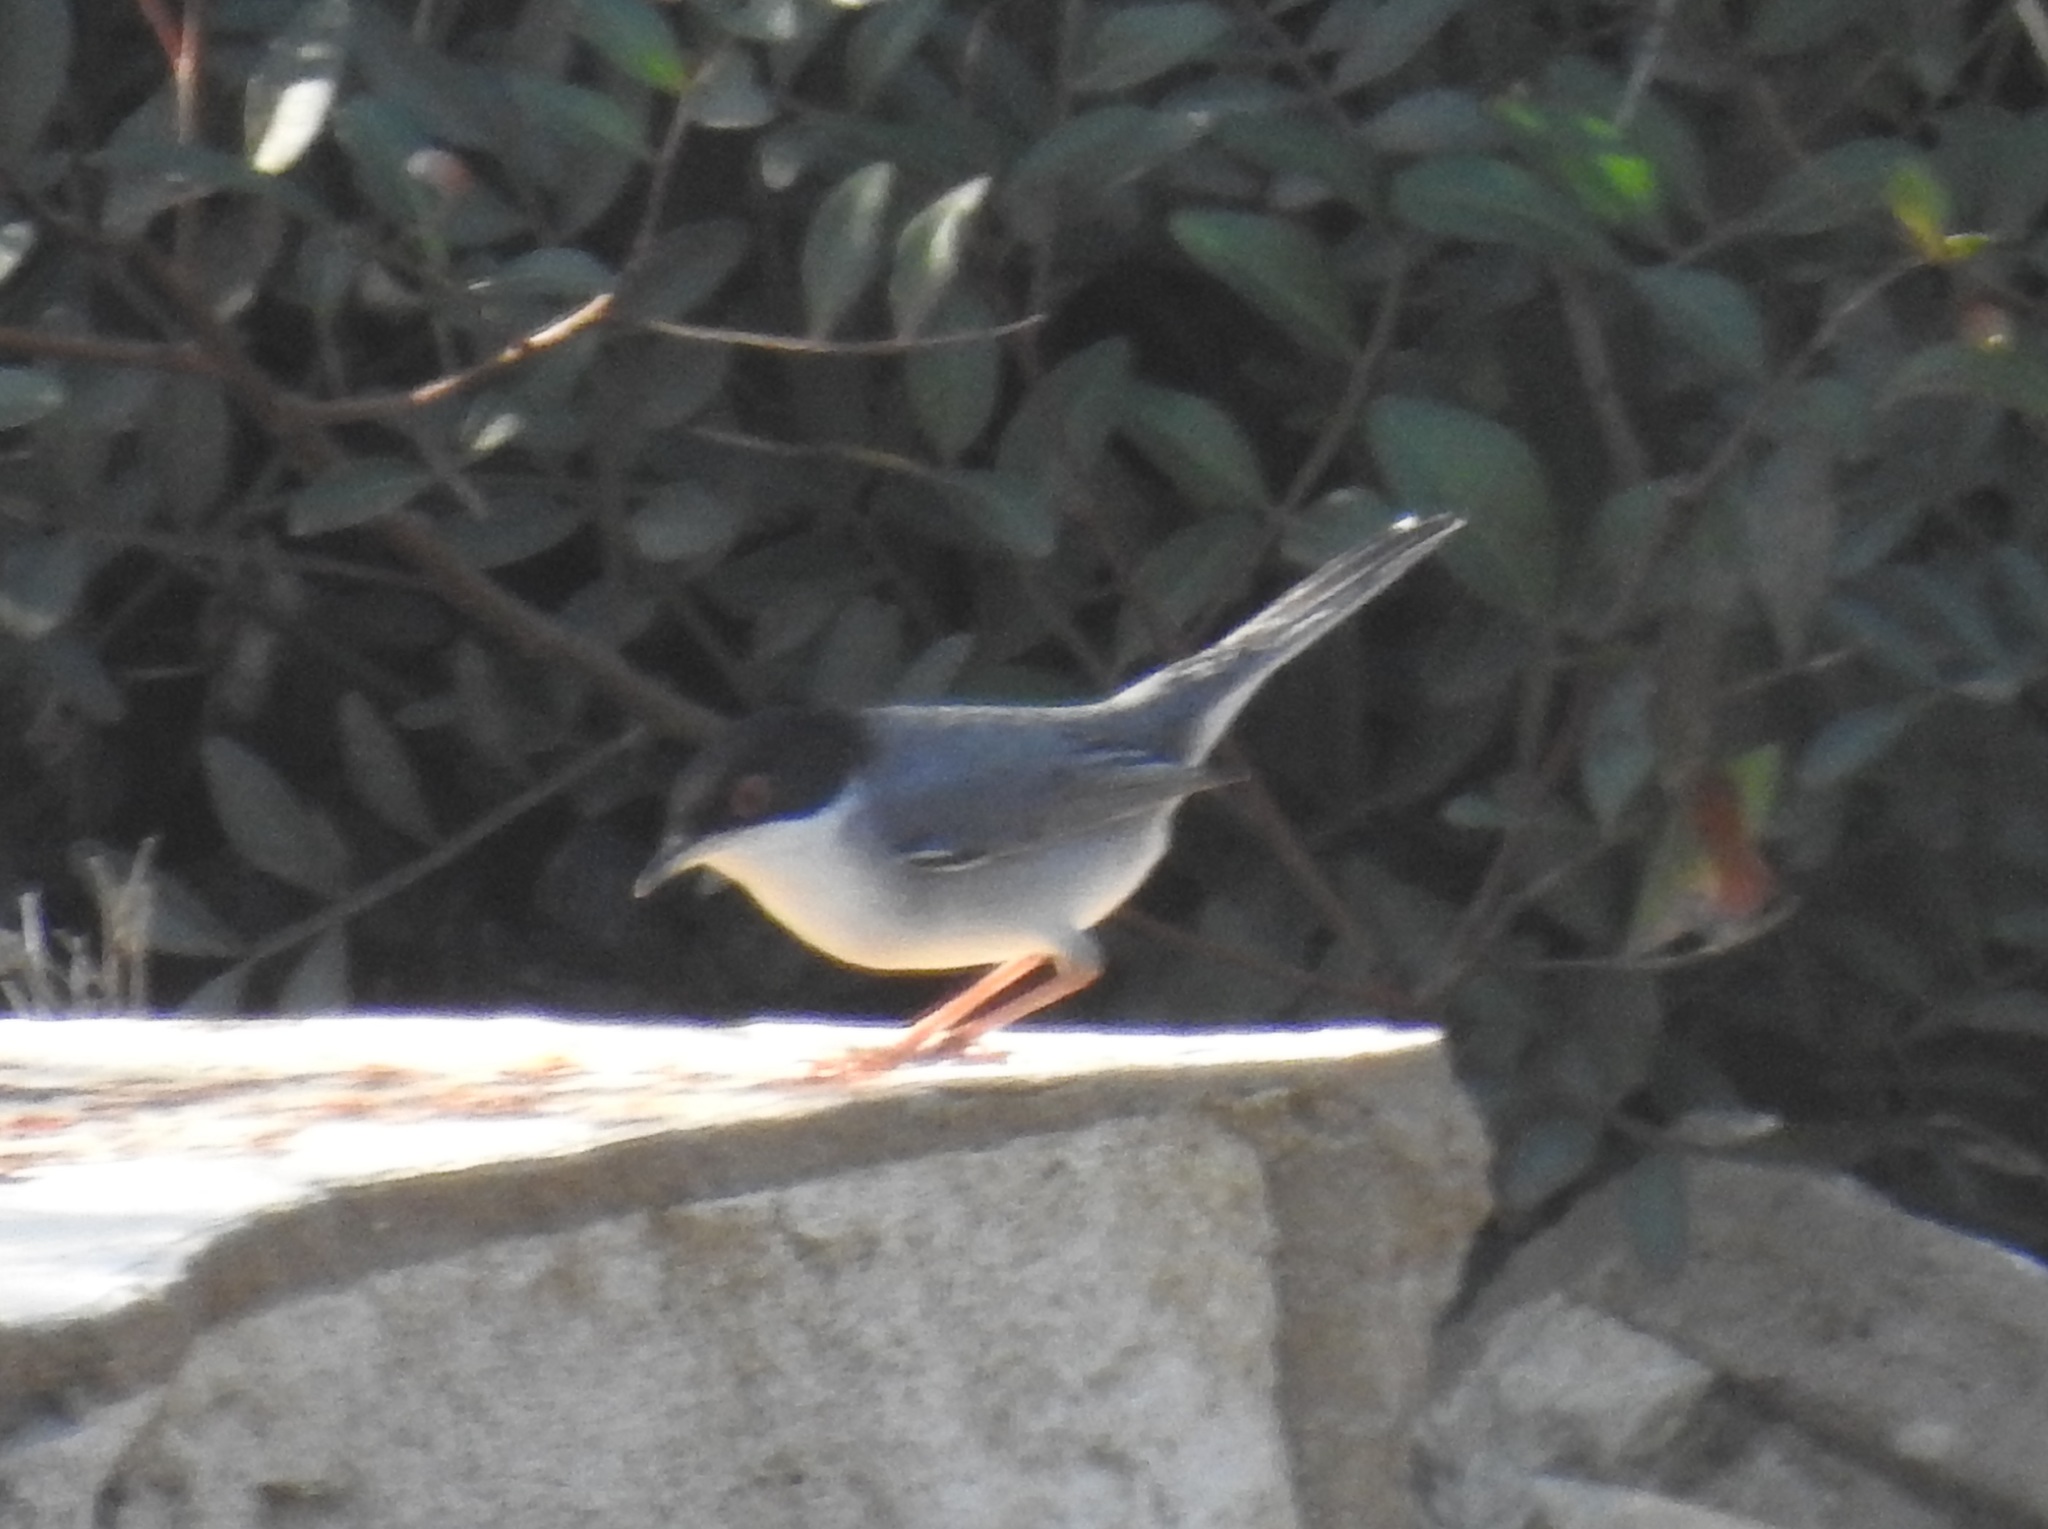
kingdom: Animalia
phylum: Chordata
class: Aves
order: Passeriformes
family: Sylviidae
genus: Curruca
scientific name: Curruca melanocephala
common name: Sardinian warbler
